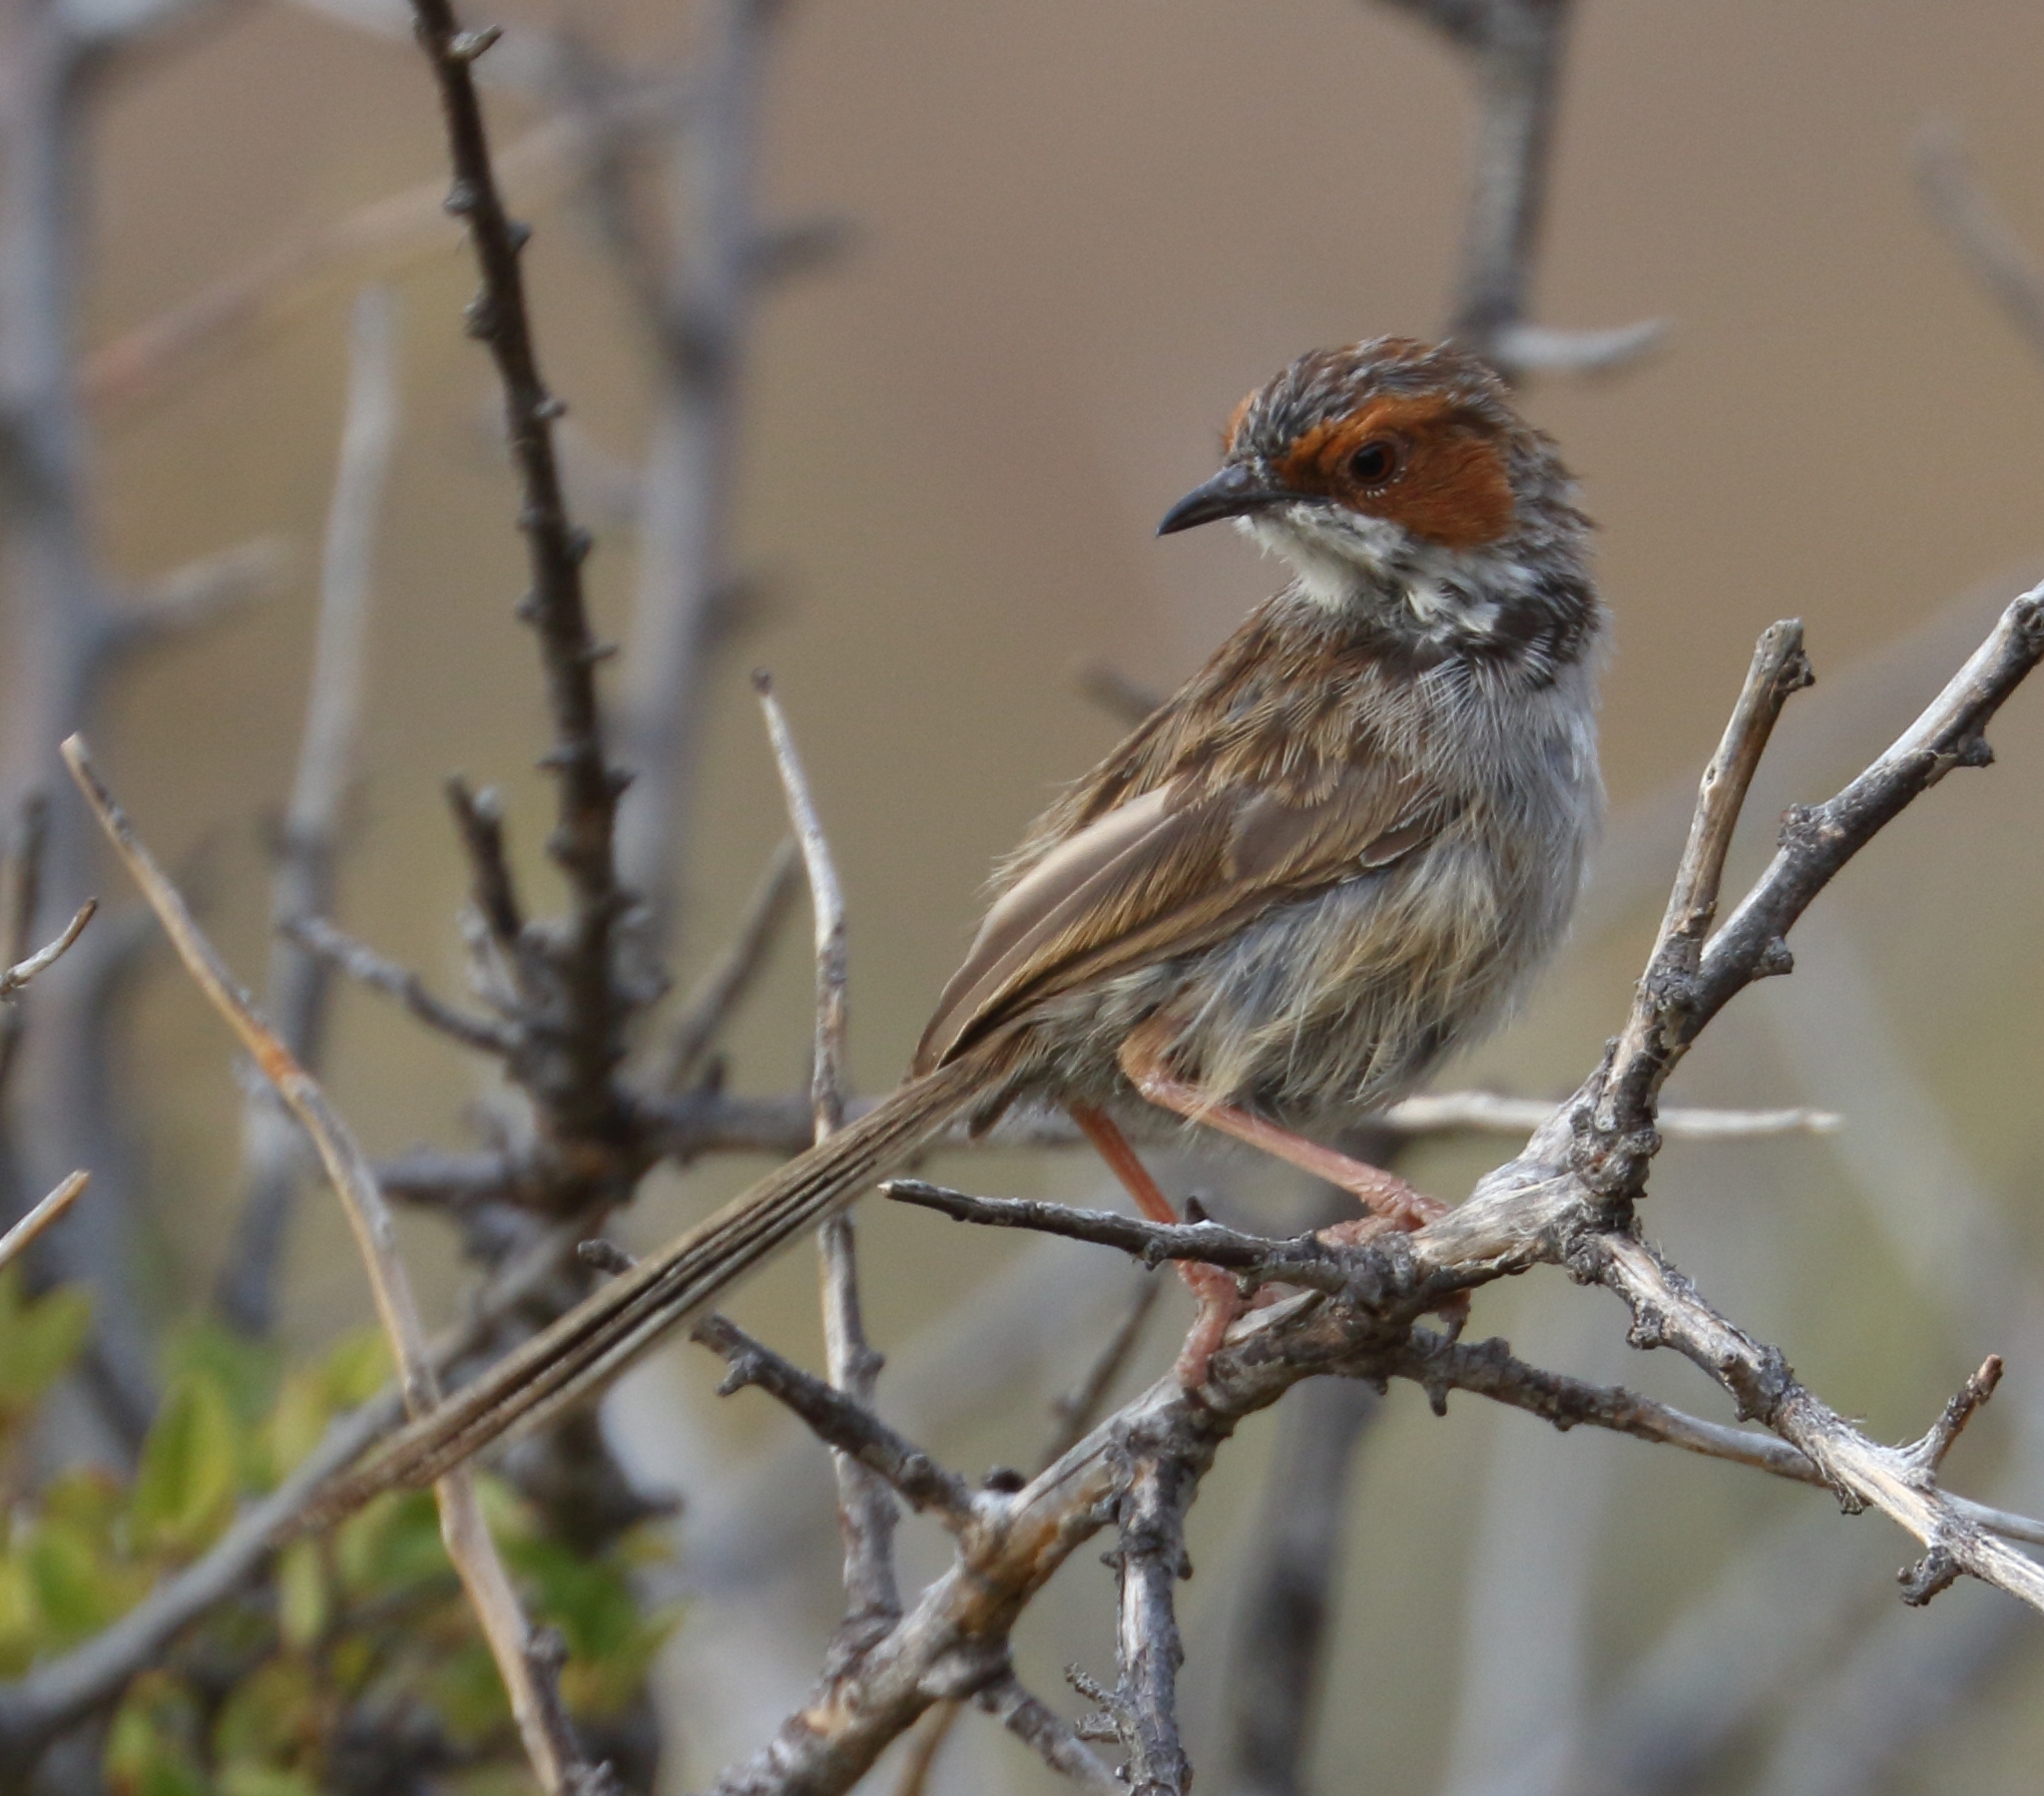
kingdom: Animalia
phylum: Chordata
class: Aves
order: Passeriformes
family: Cisticolidae
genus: Malcorus
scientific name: Malcorus pectoralis
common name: Rufous-eared warbler
